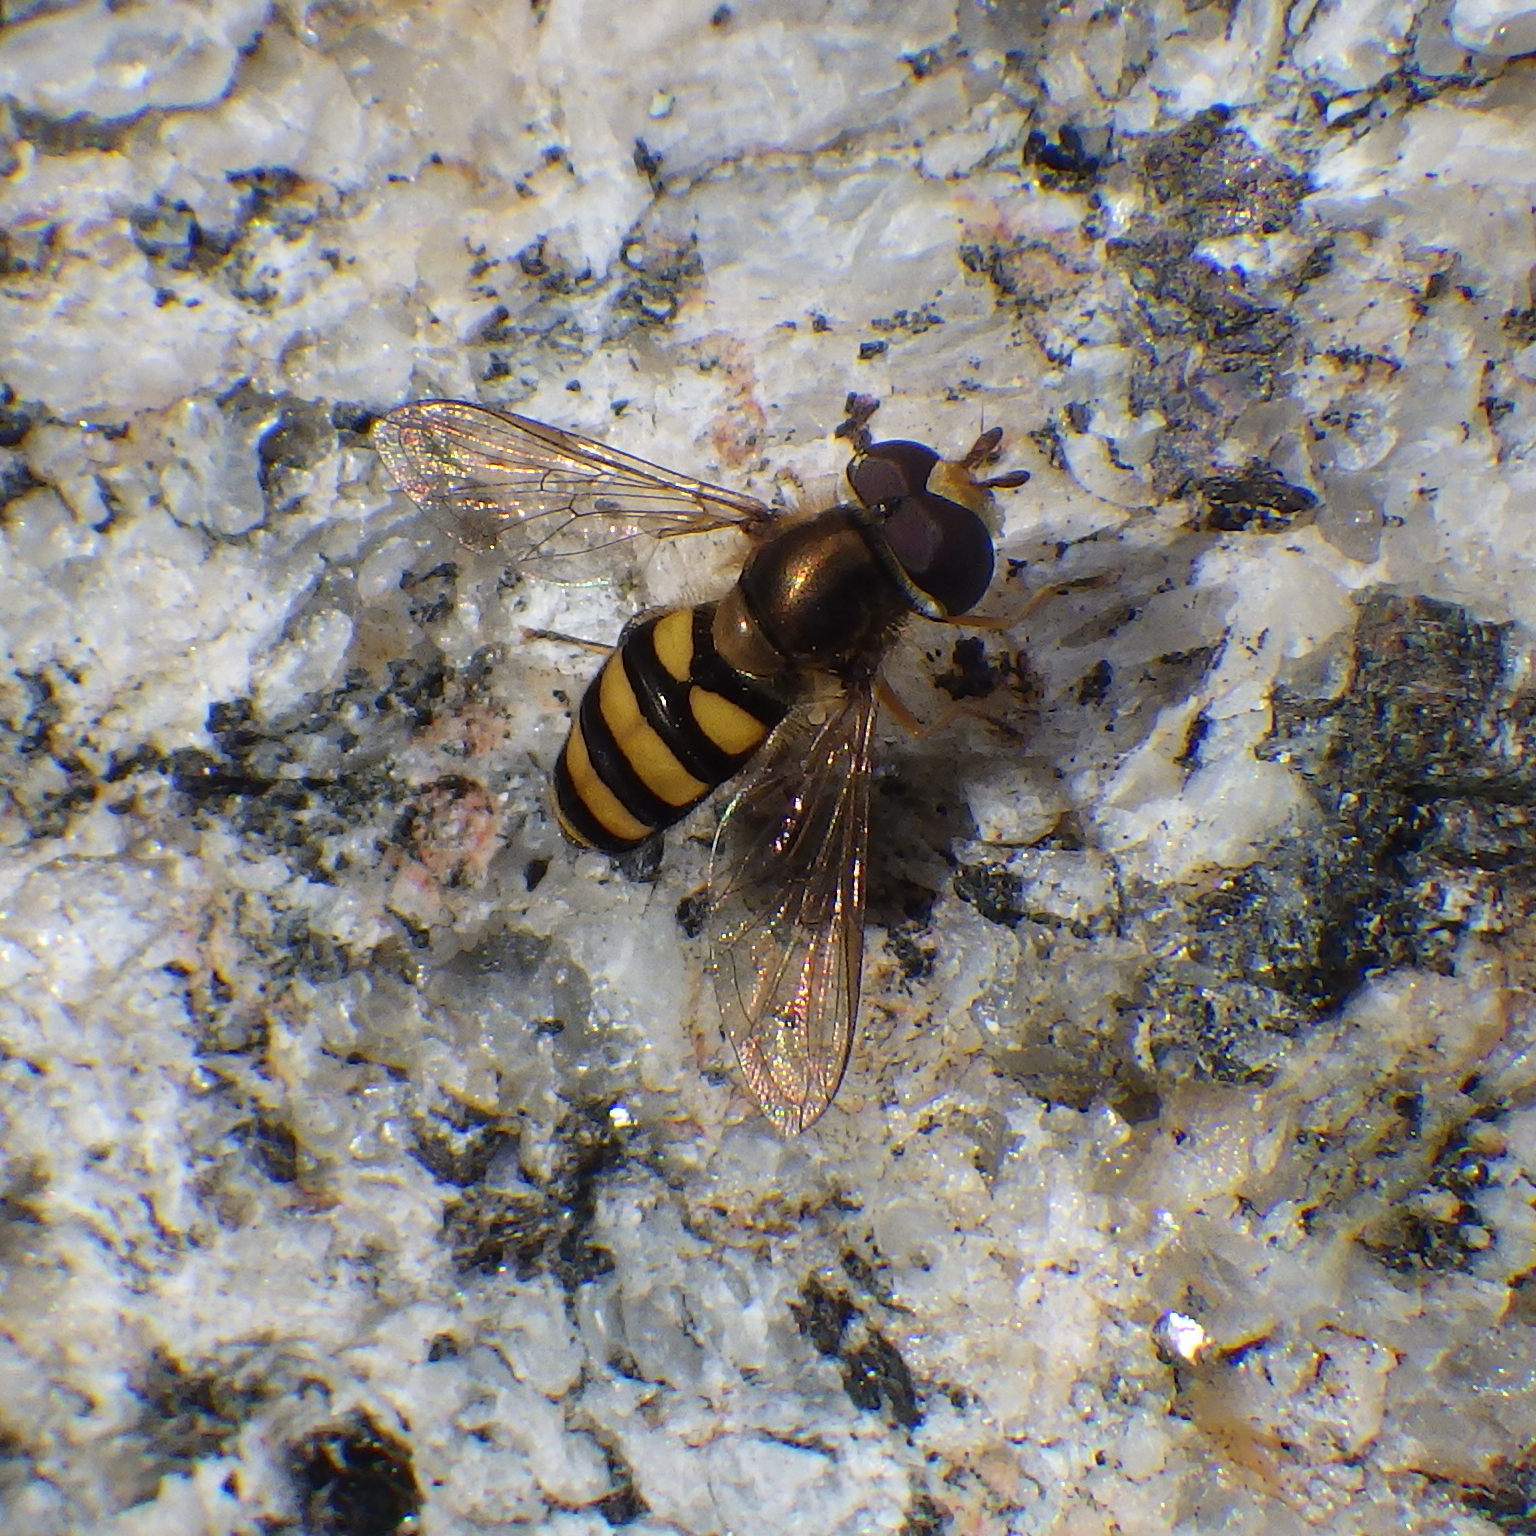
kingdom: Animalia
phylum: Arthropoda
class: Insecta
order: Diptera
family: Syrphidae
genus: Eupeodes
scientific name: Eupeodes
